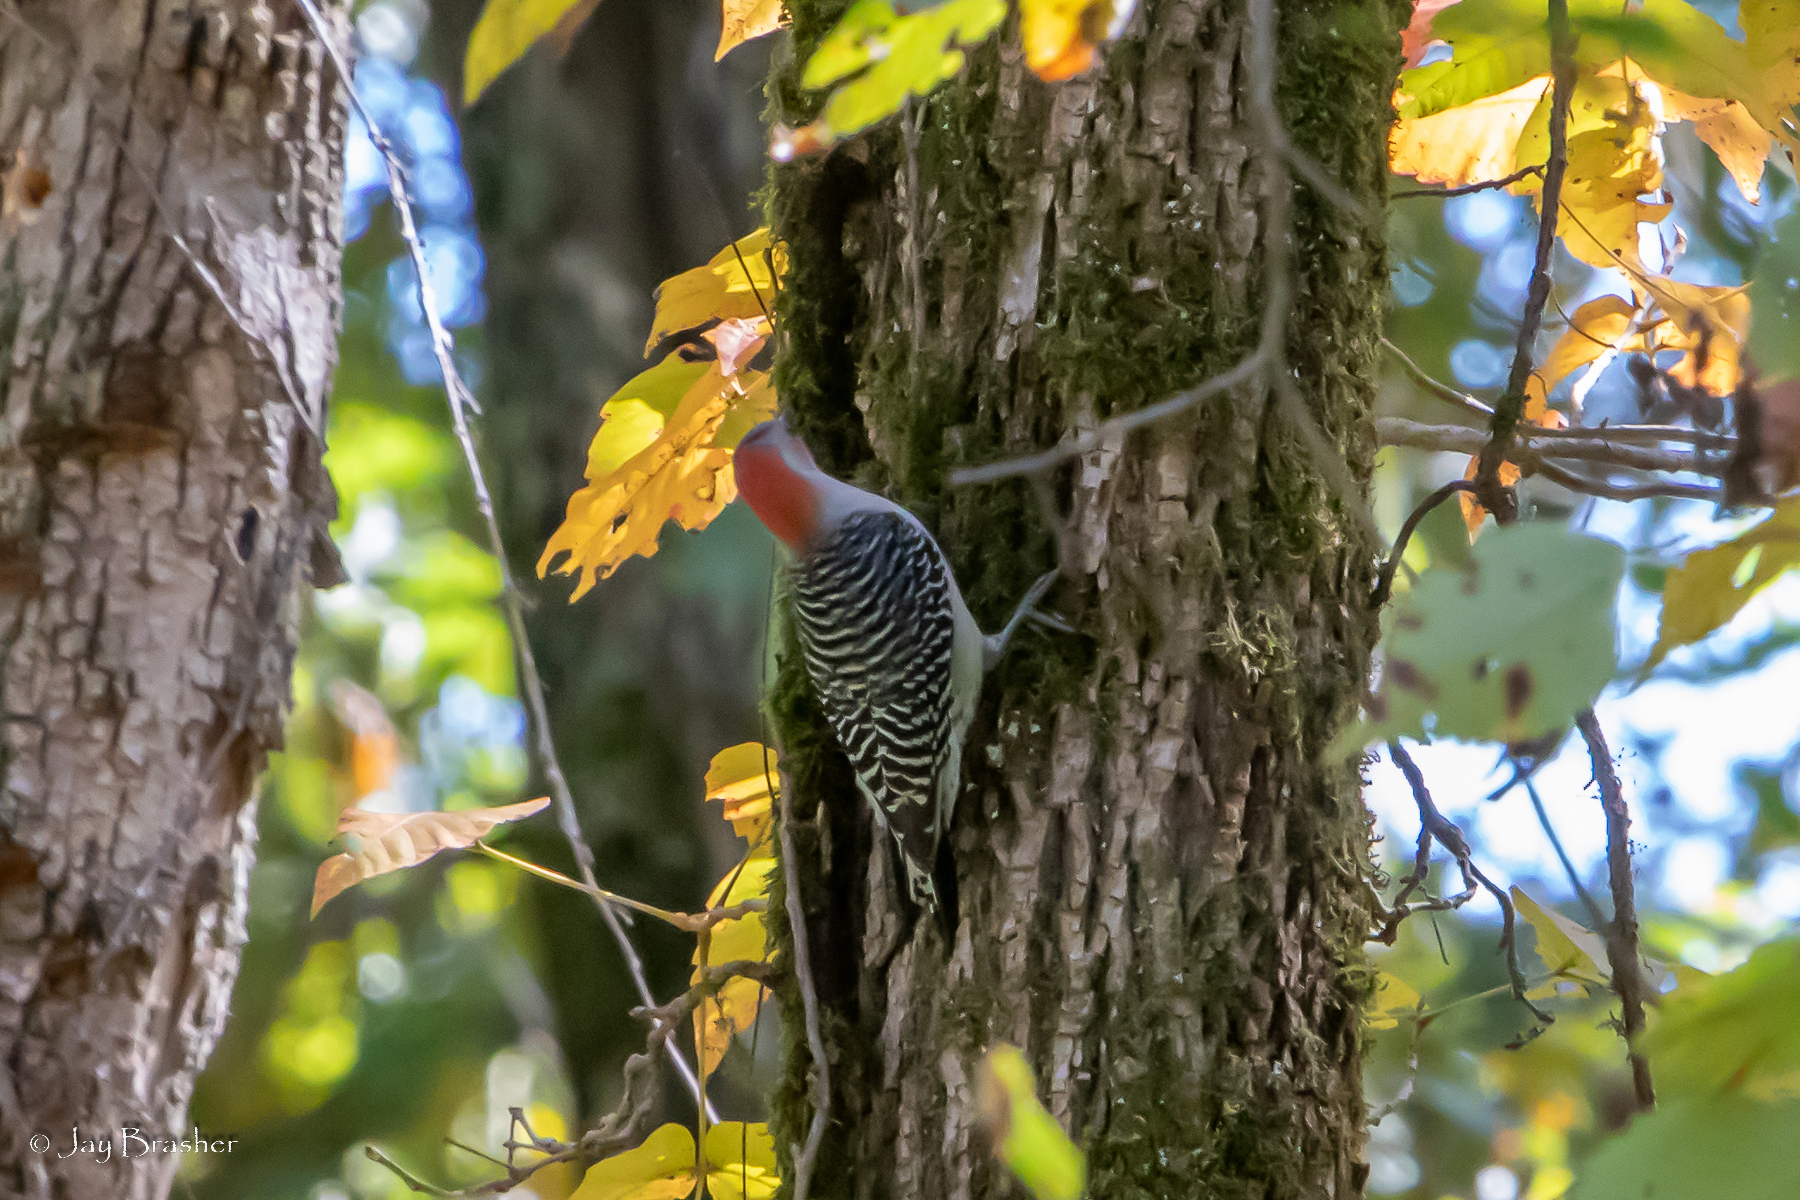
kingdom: Animalia
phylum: Chordata
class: Aves
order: Piciformes
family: Picidae
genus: Melanerpes
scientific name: Melanerpes carolinus
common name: Red-bellied woodpecker
